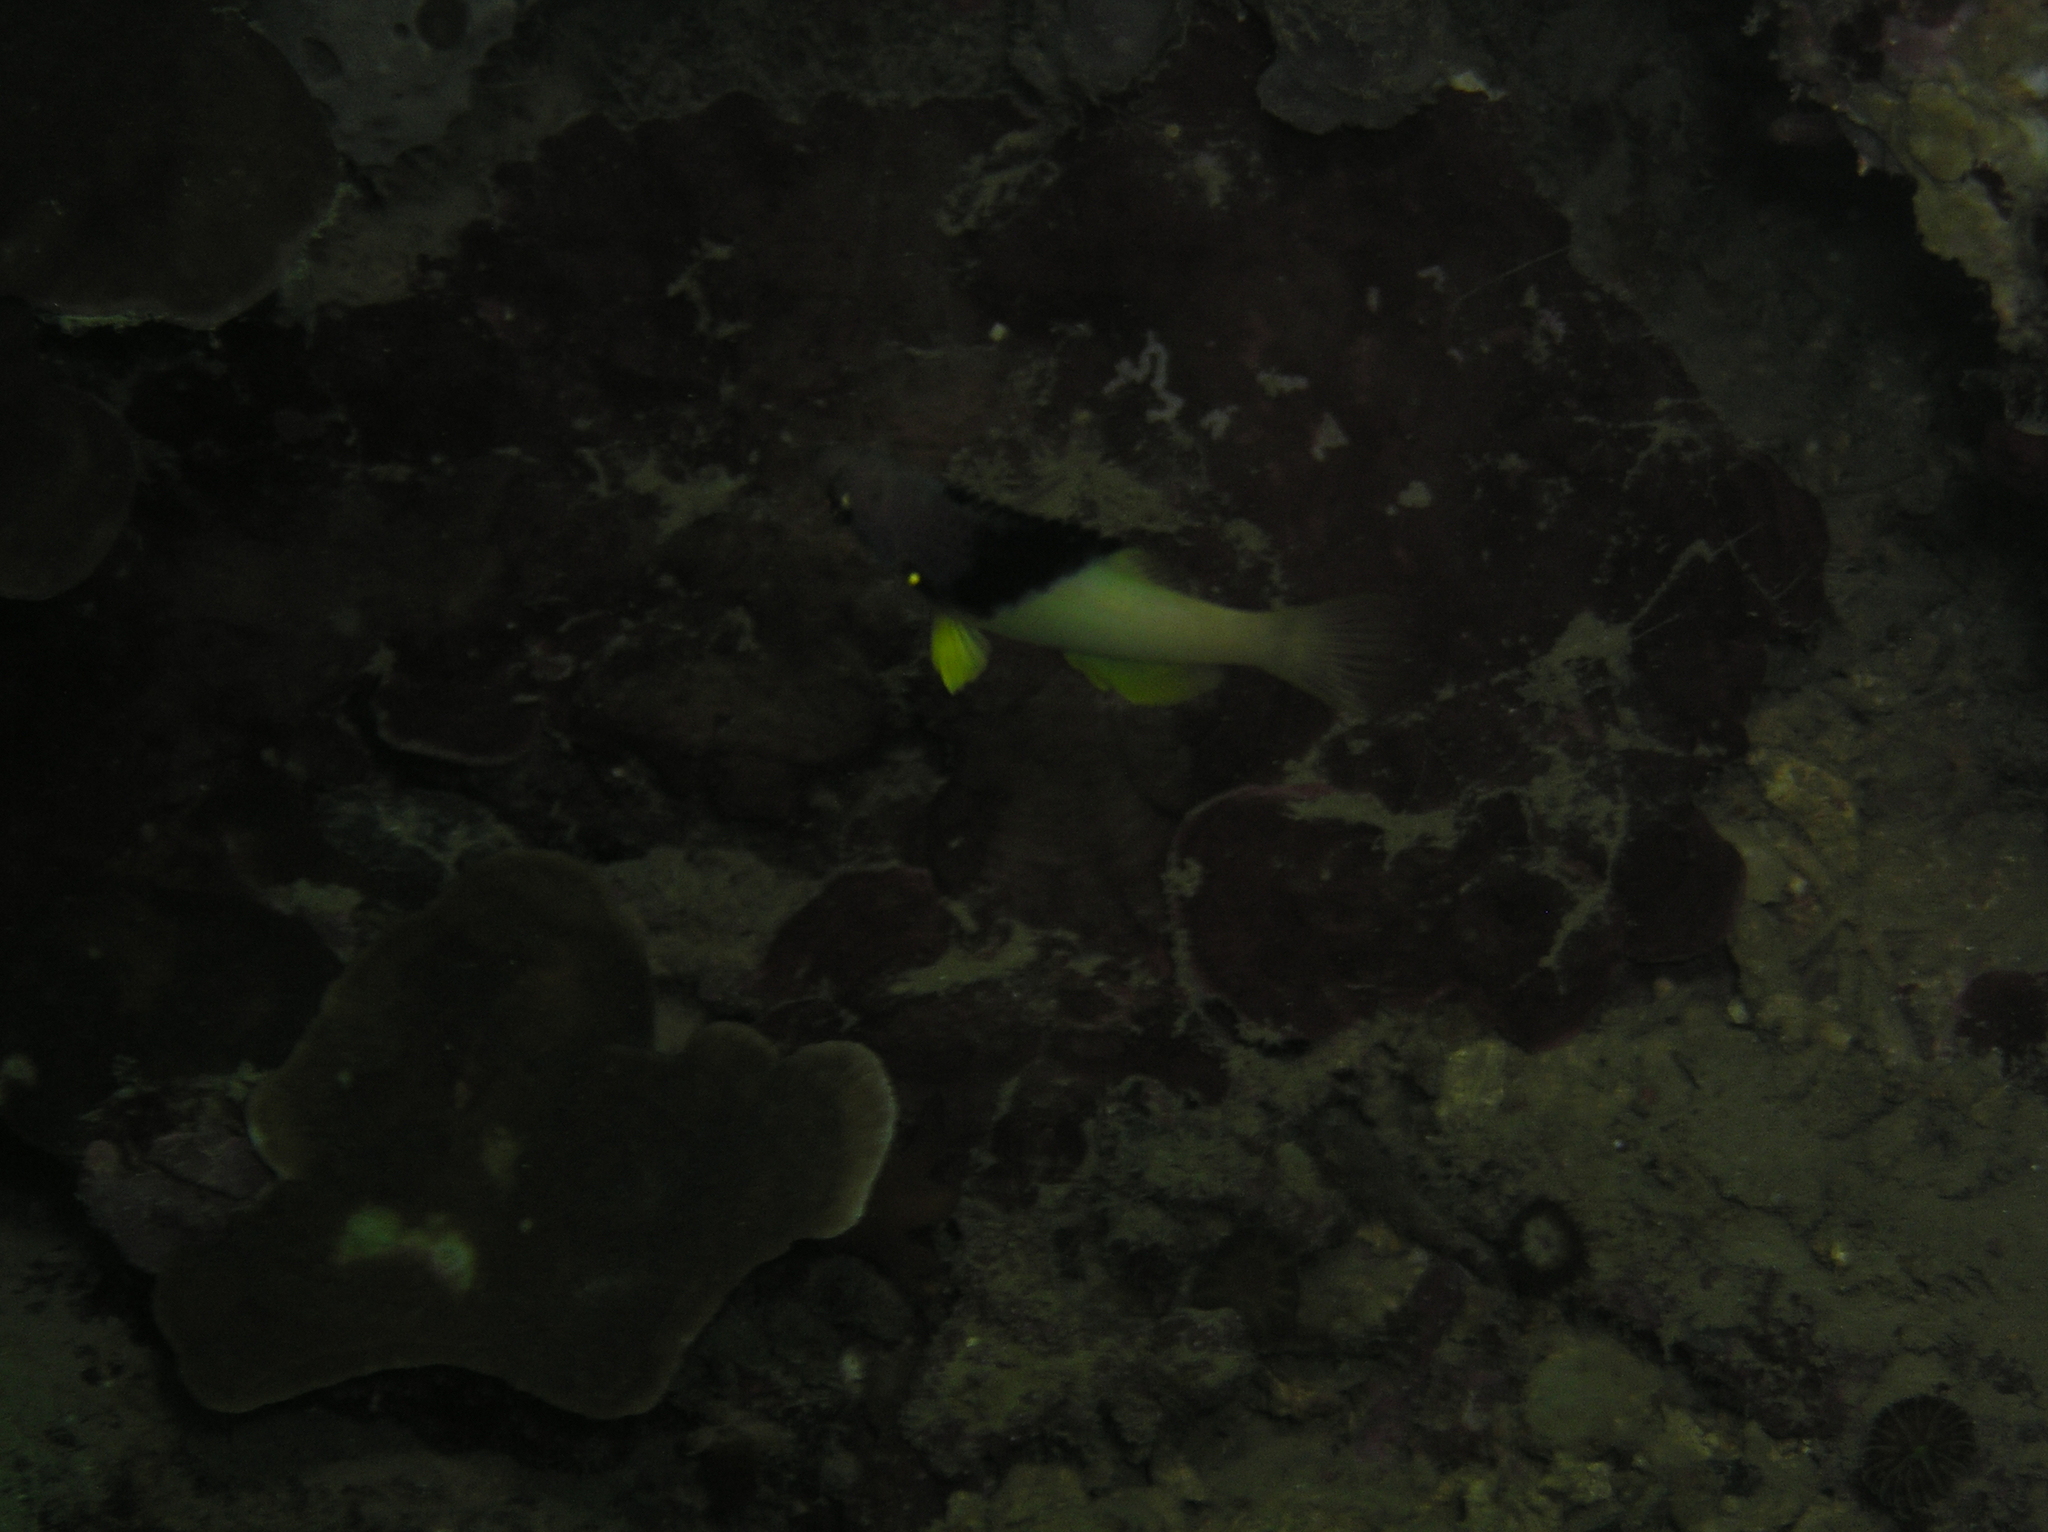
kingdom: Animalia
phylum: Chordata
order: Perciformes
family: Labridae
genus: Bodianus
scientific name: Bodianus mesothorax
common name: Coral hogfish
